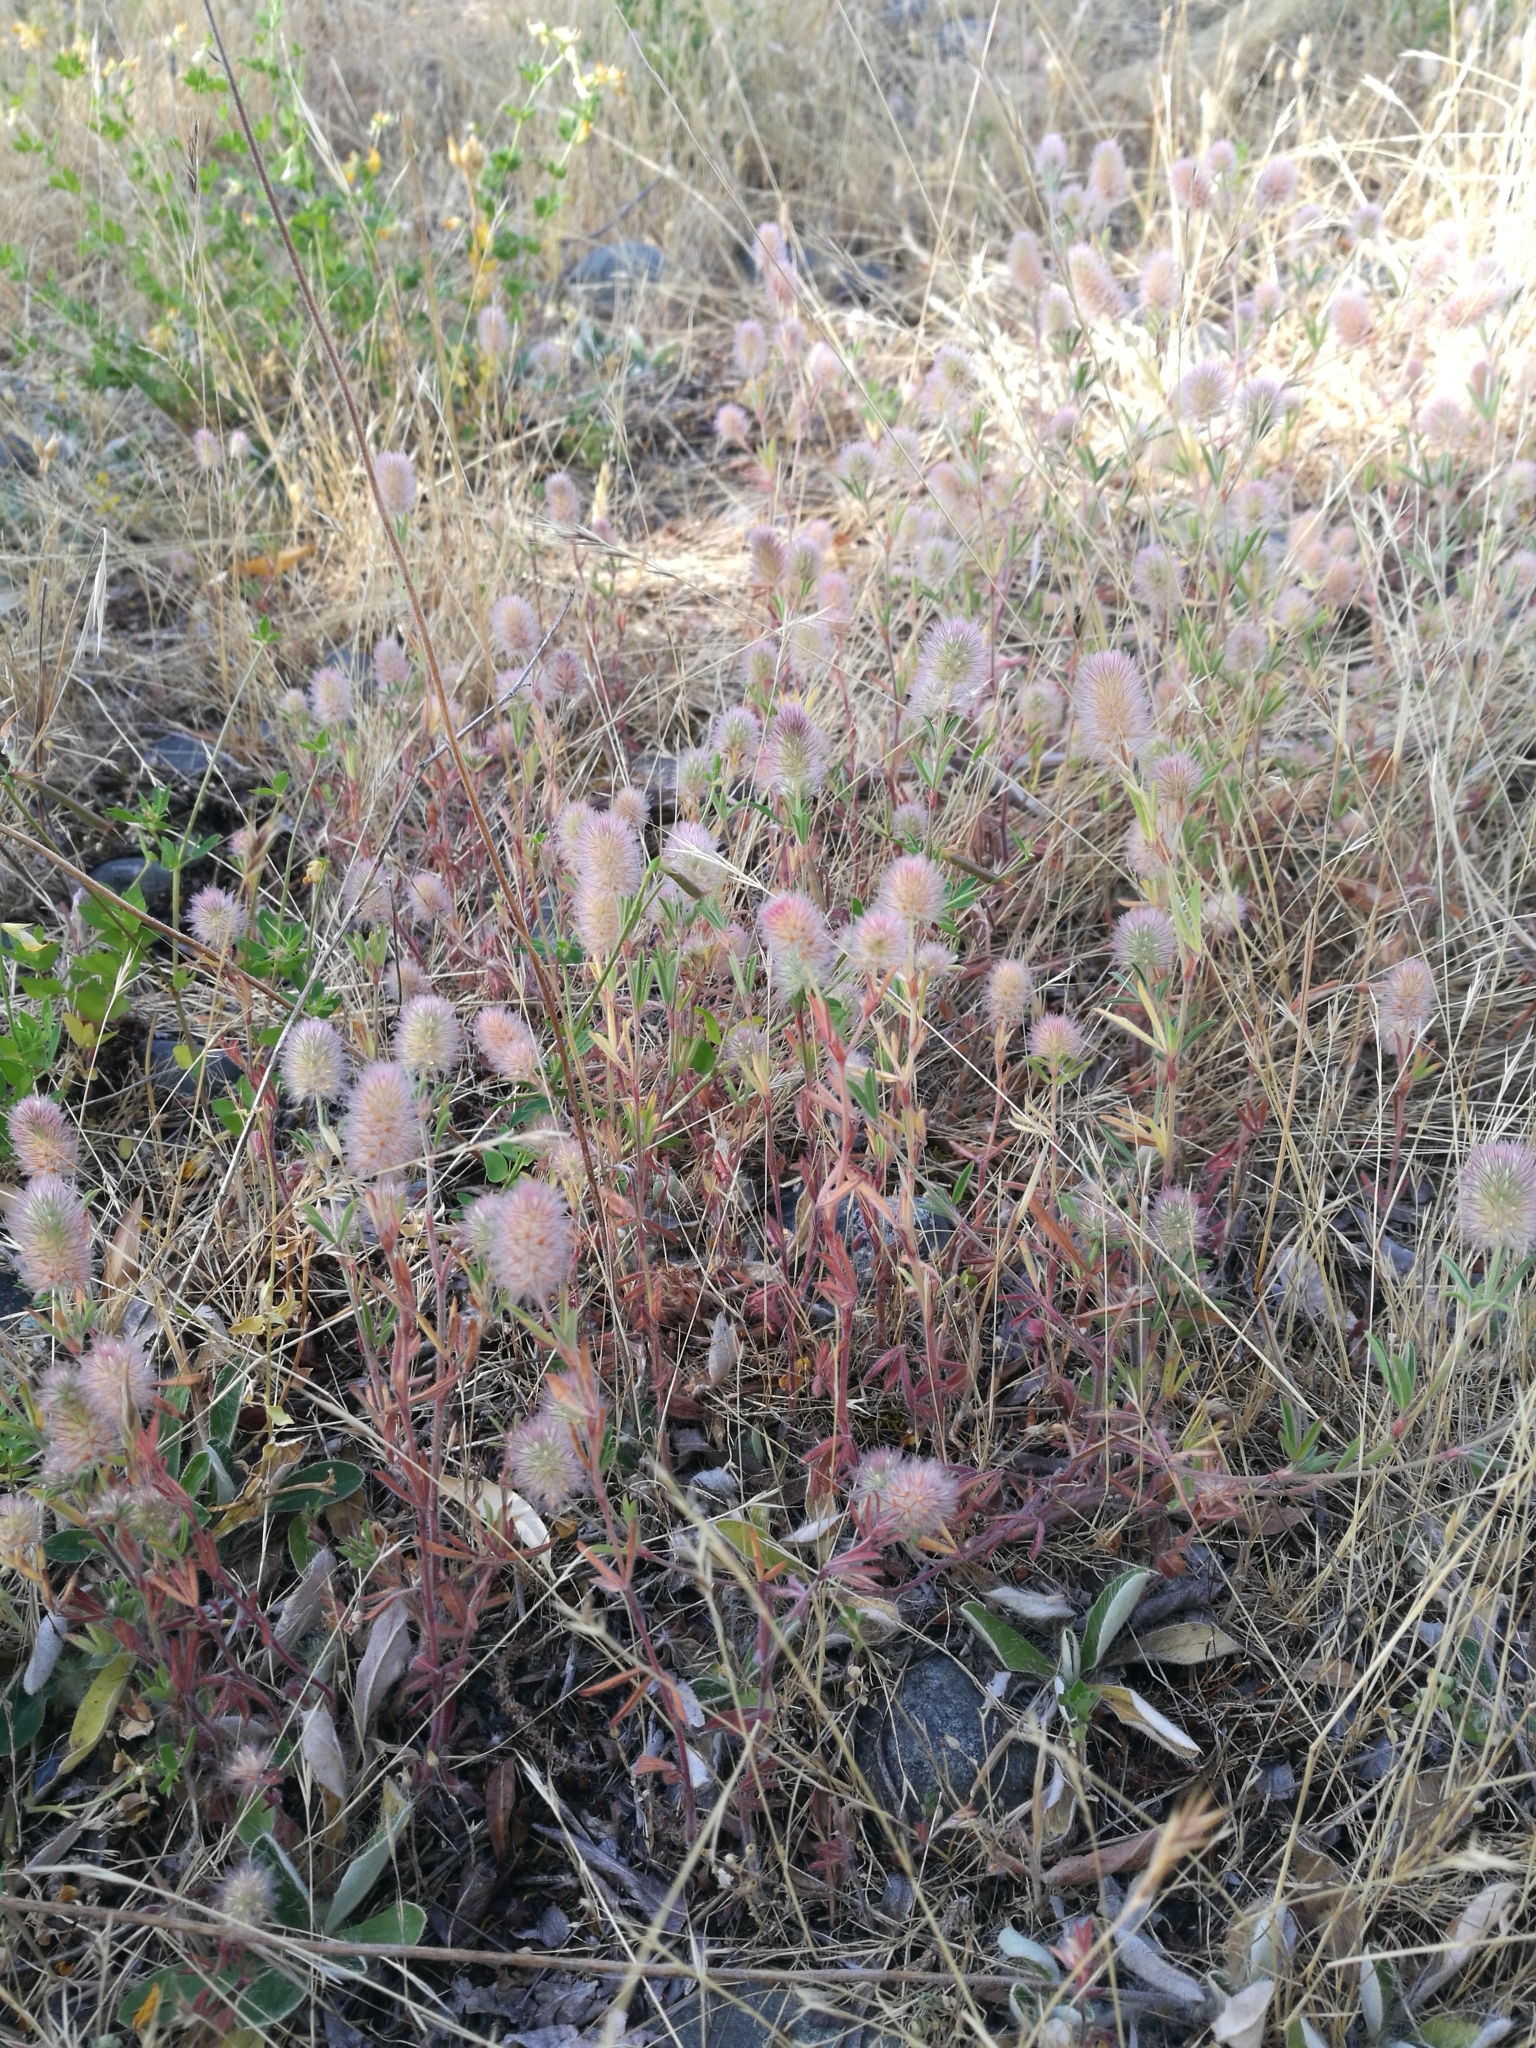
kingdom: Plantae
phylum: Tracheophyta
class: Magnoliopsida
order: Fabales
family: Fabaceae
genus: Trifolium
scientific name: Trifolium arvense
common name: Hare's-foot clover
